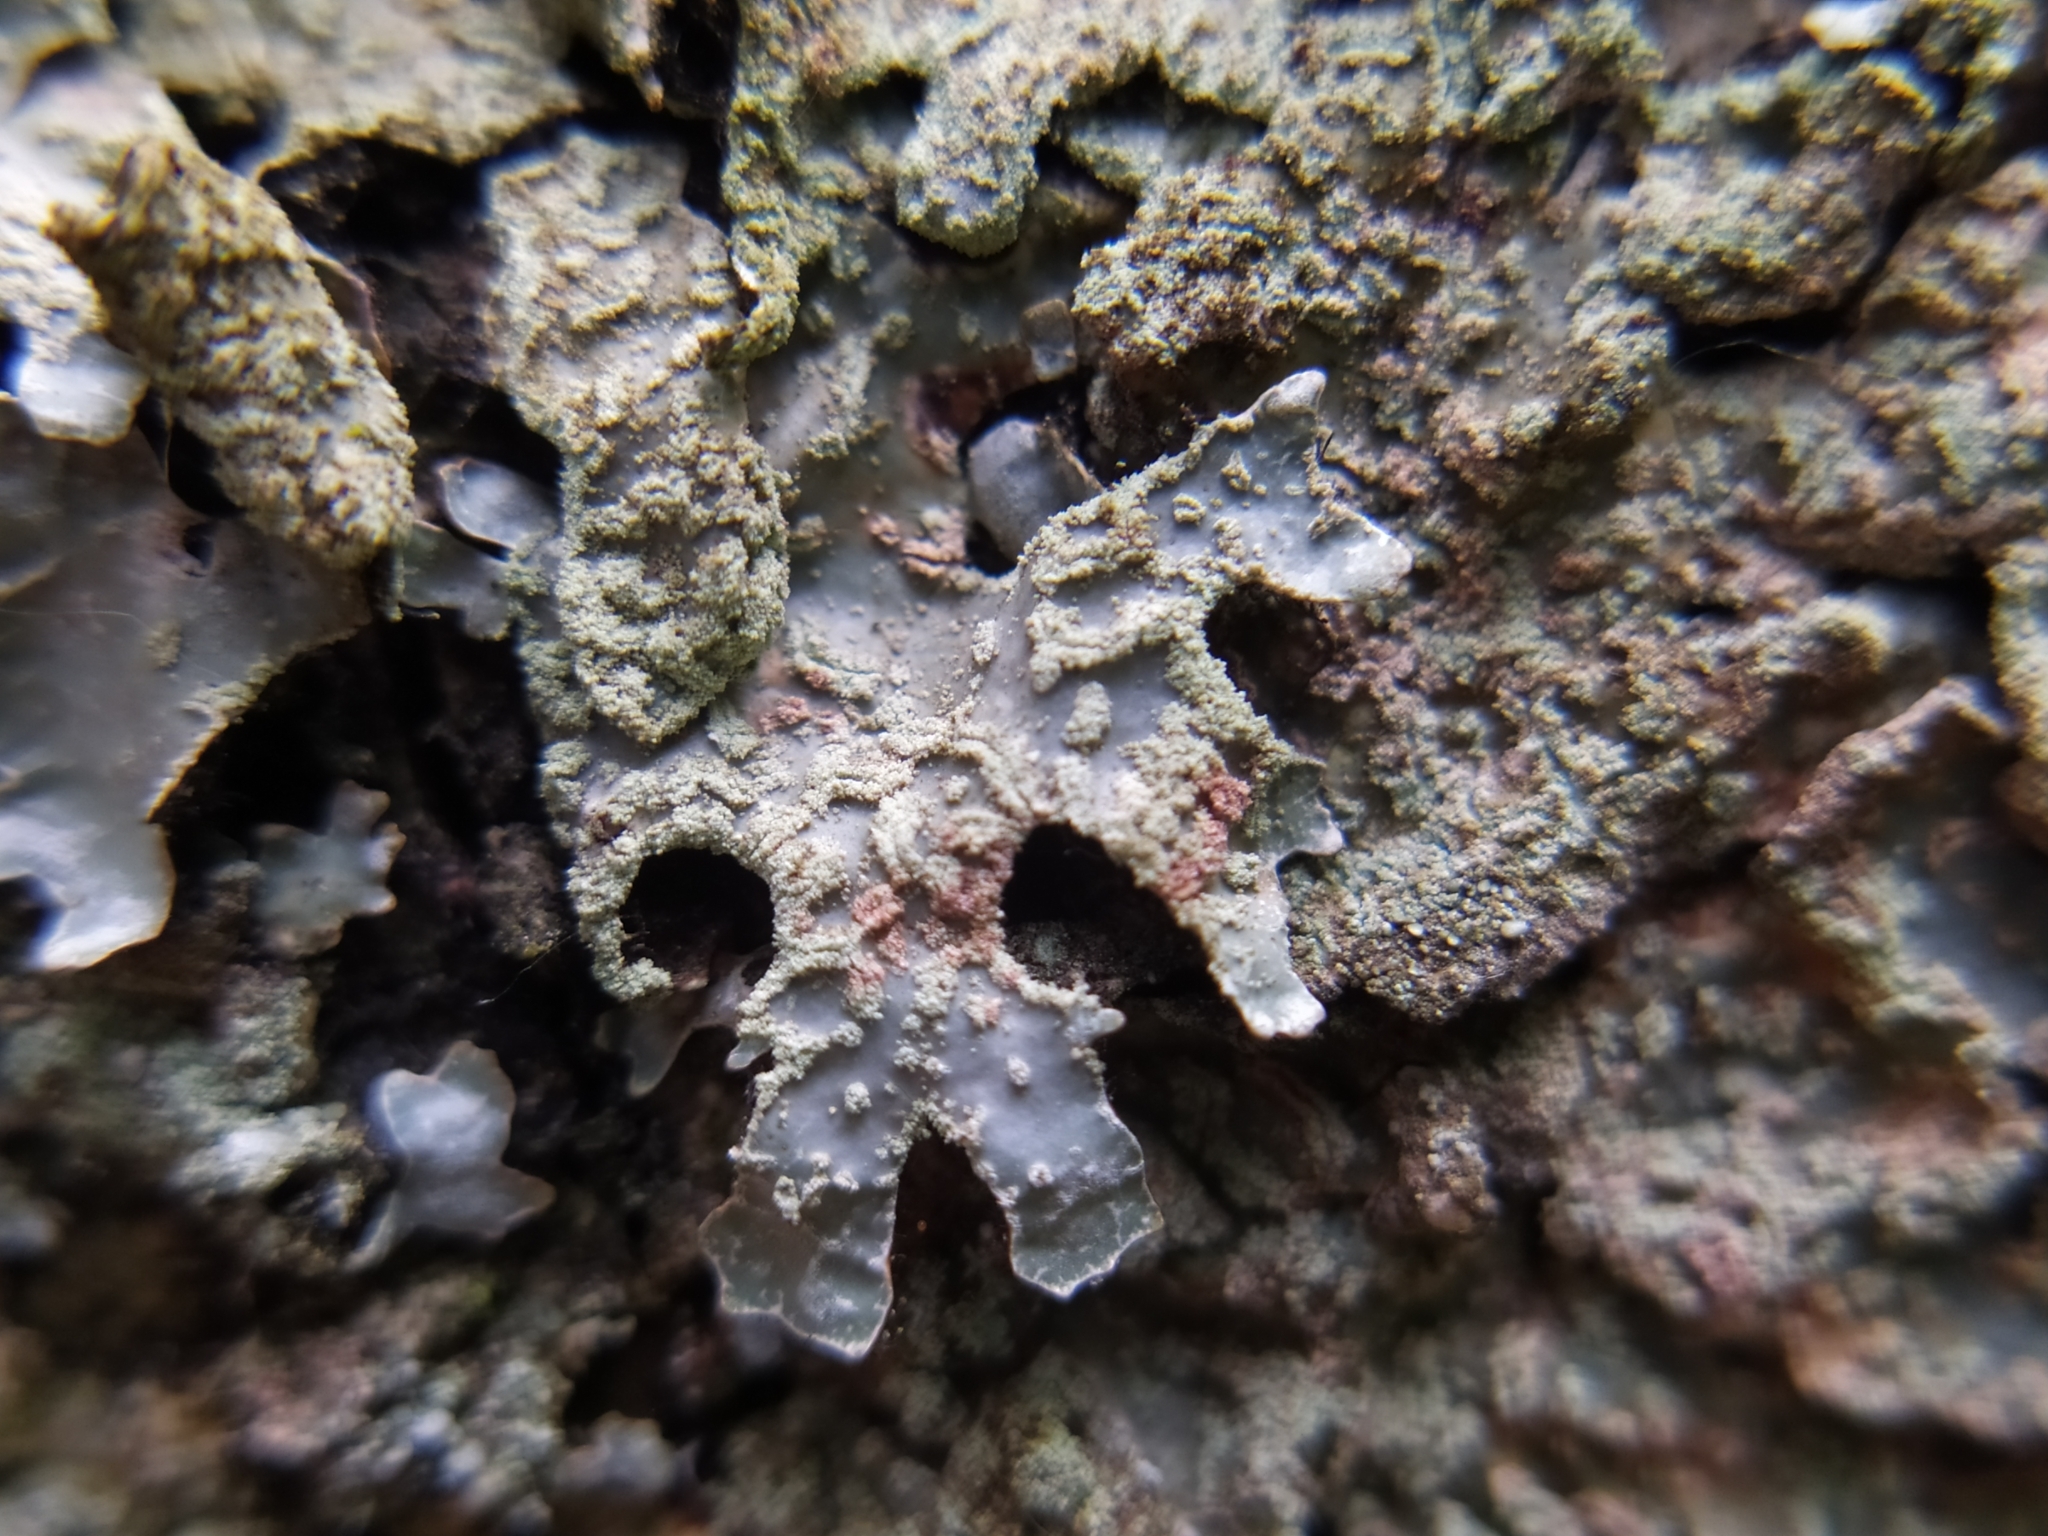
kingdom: Fungi
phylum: Ascomycota
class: Lecanoromycetes
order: Lecanorales
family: Parmeliaceae
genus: Parmelia
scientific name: Parmelia sulcata
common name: Netted shield lichen
